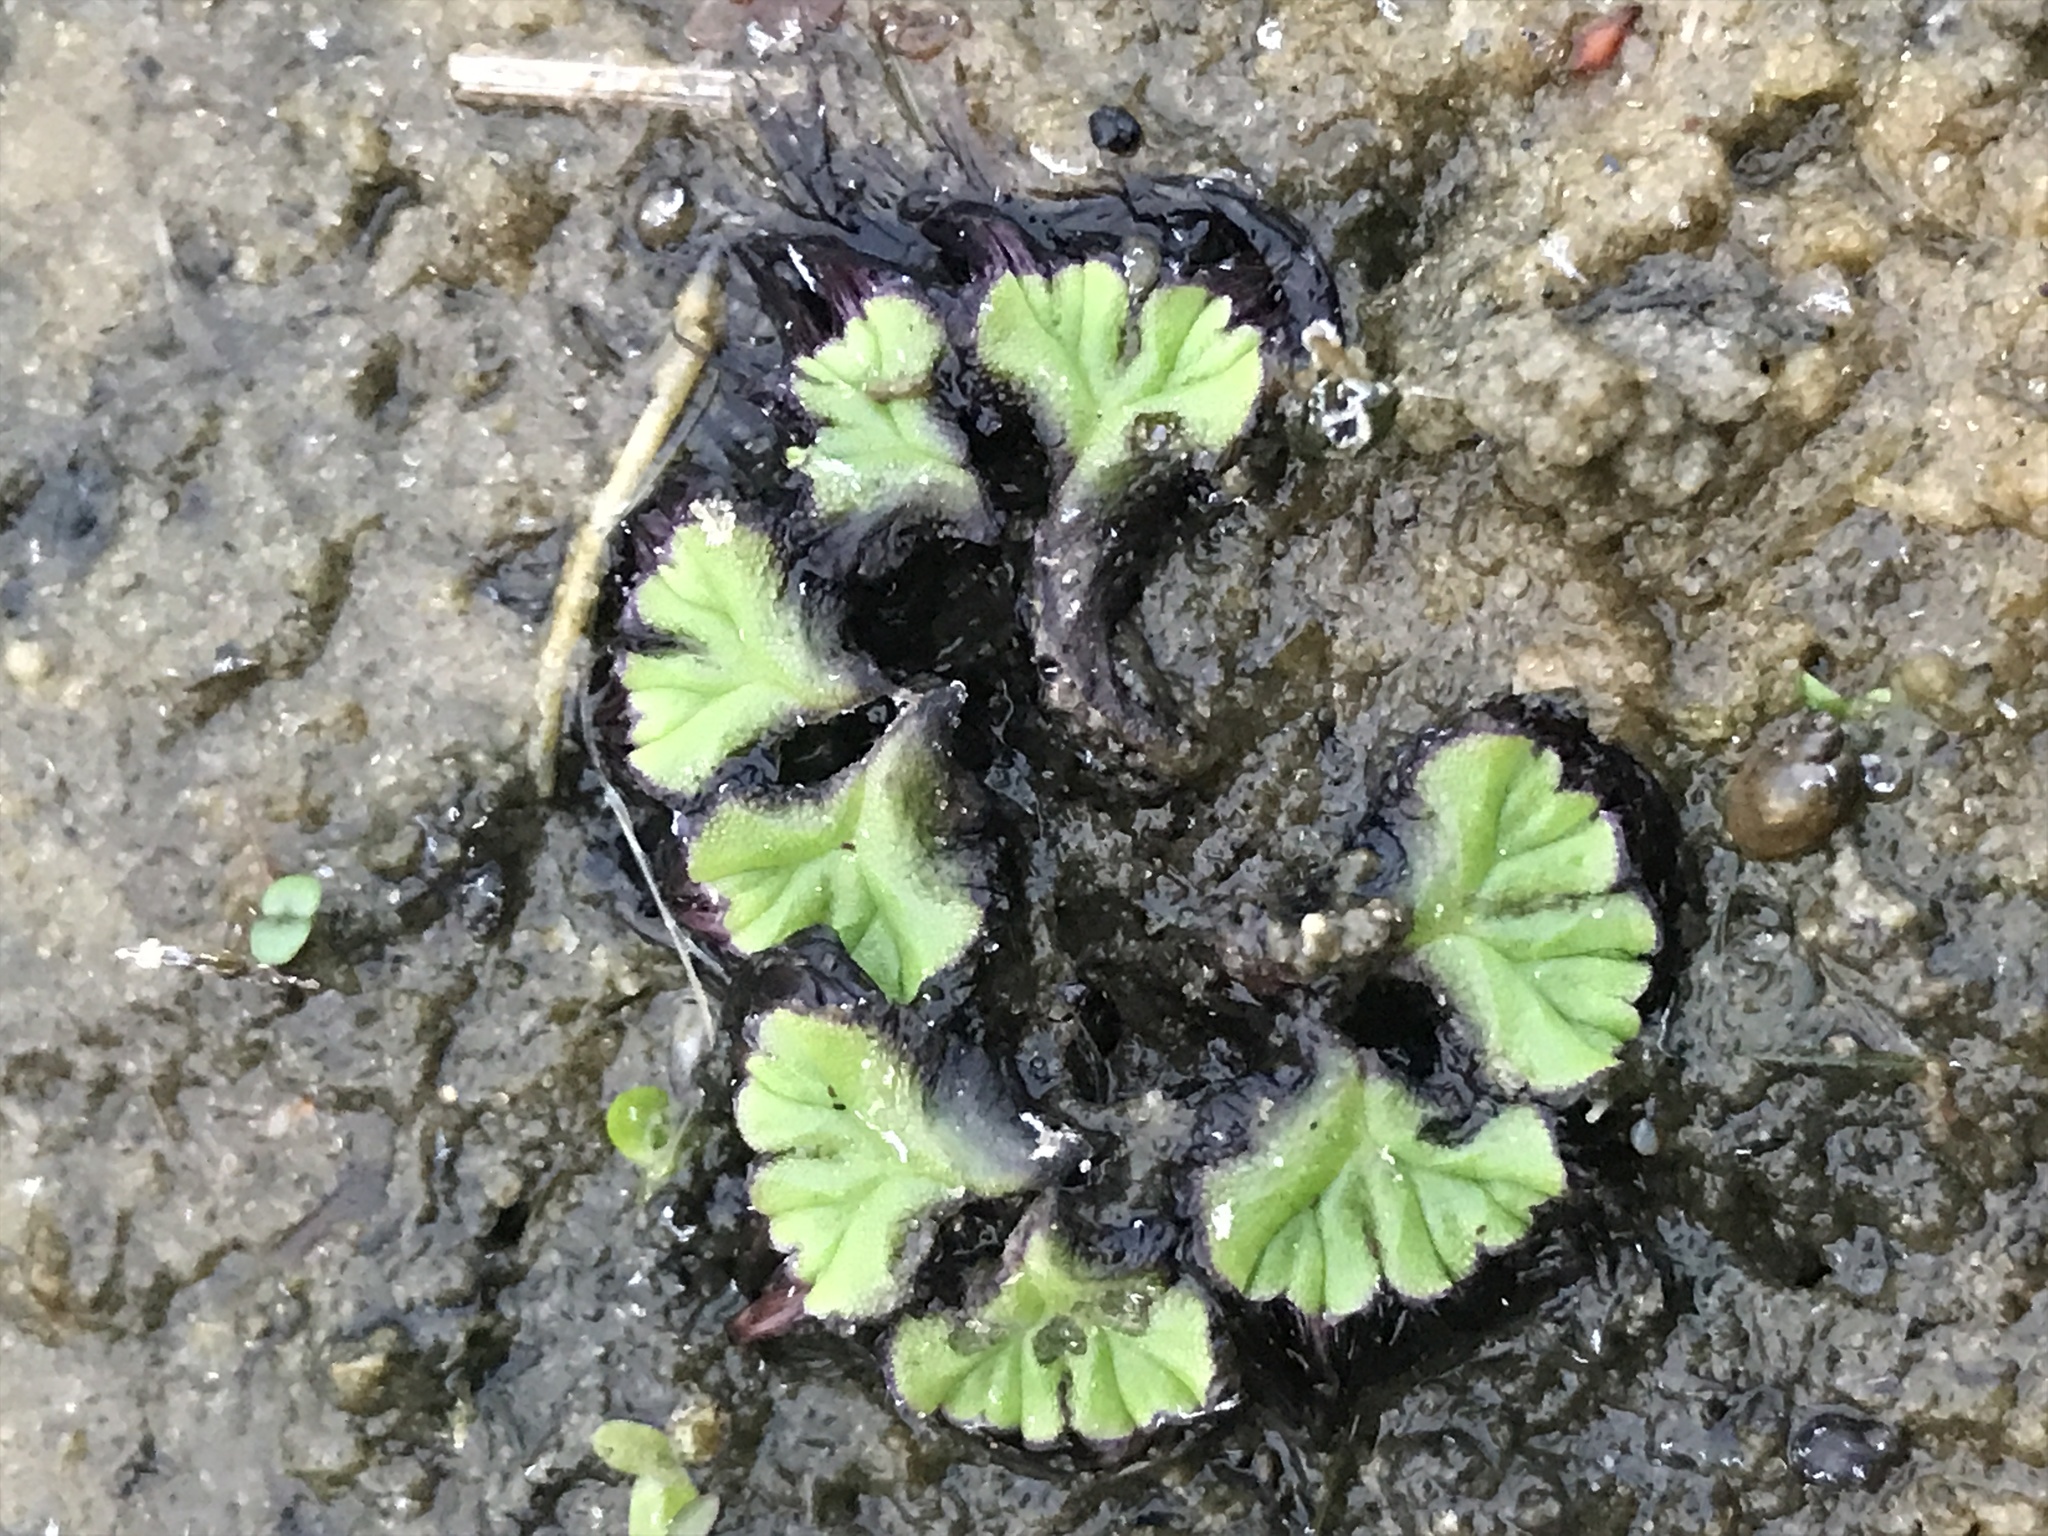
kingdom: Plantae
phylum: Marchantiophyta
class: Marchantiopsida
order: Marchantiales
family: Ricciaceae
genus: Ricciocarpos
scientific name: Ricciocarpos natans
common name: Purple-fringed liverwort
